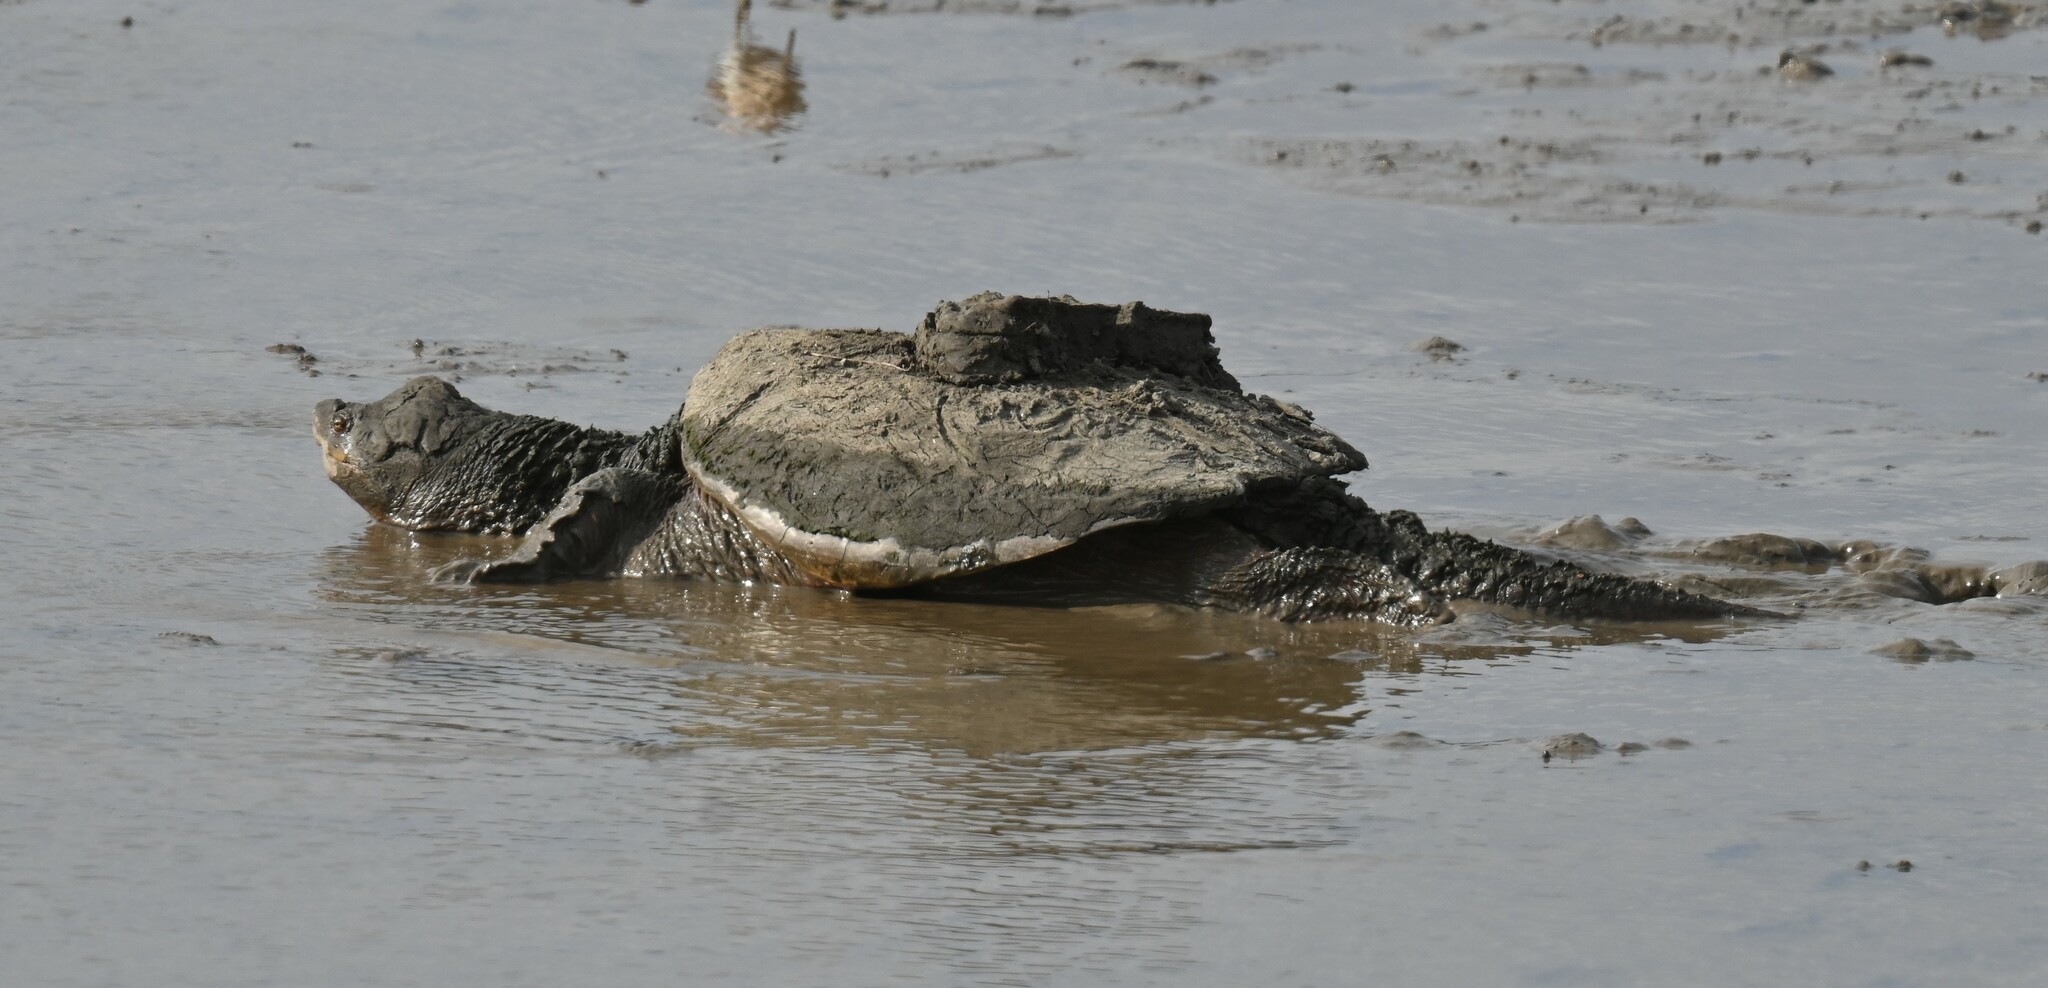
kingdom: Animalia
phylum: Chordata
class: Testudines
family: Chelydridae
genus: Chelydra
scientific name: Chelydra serpentina
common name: Common snapping turtle
